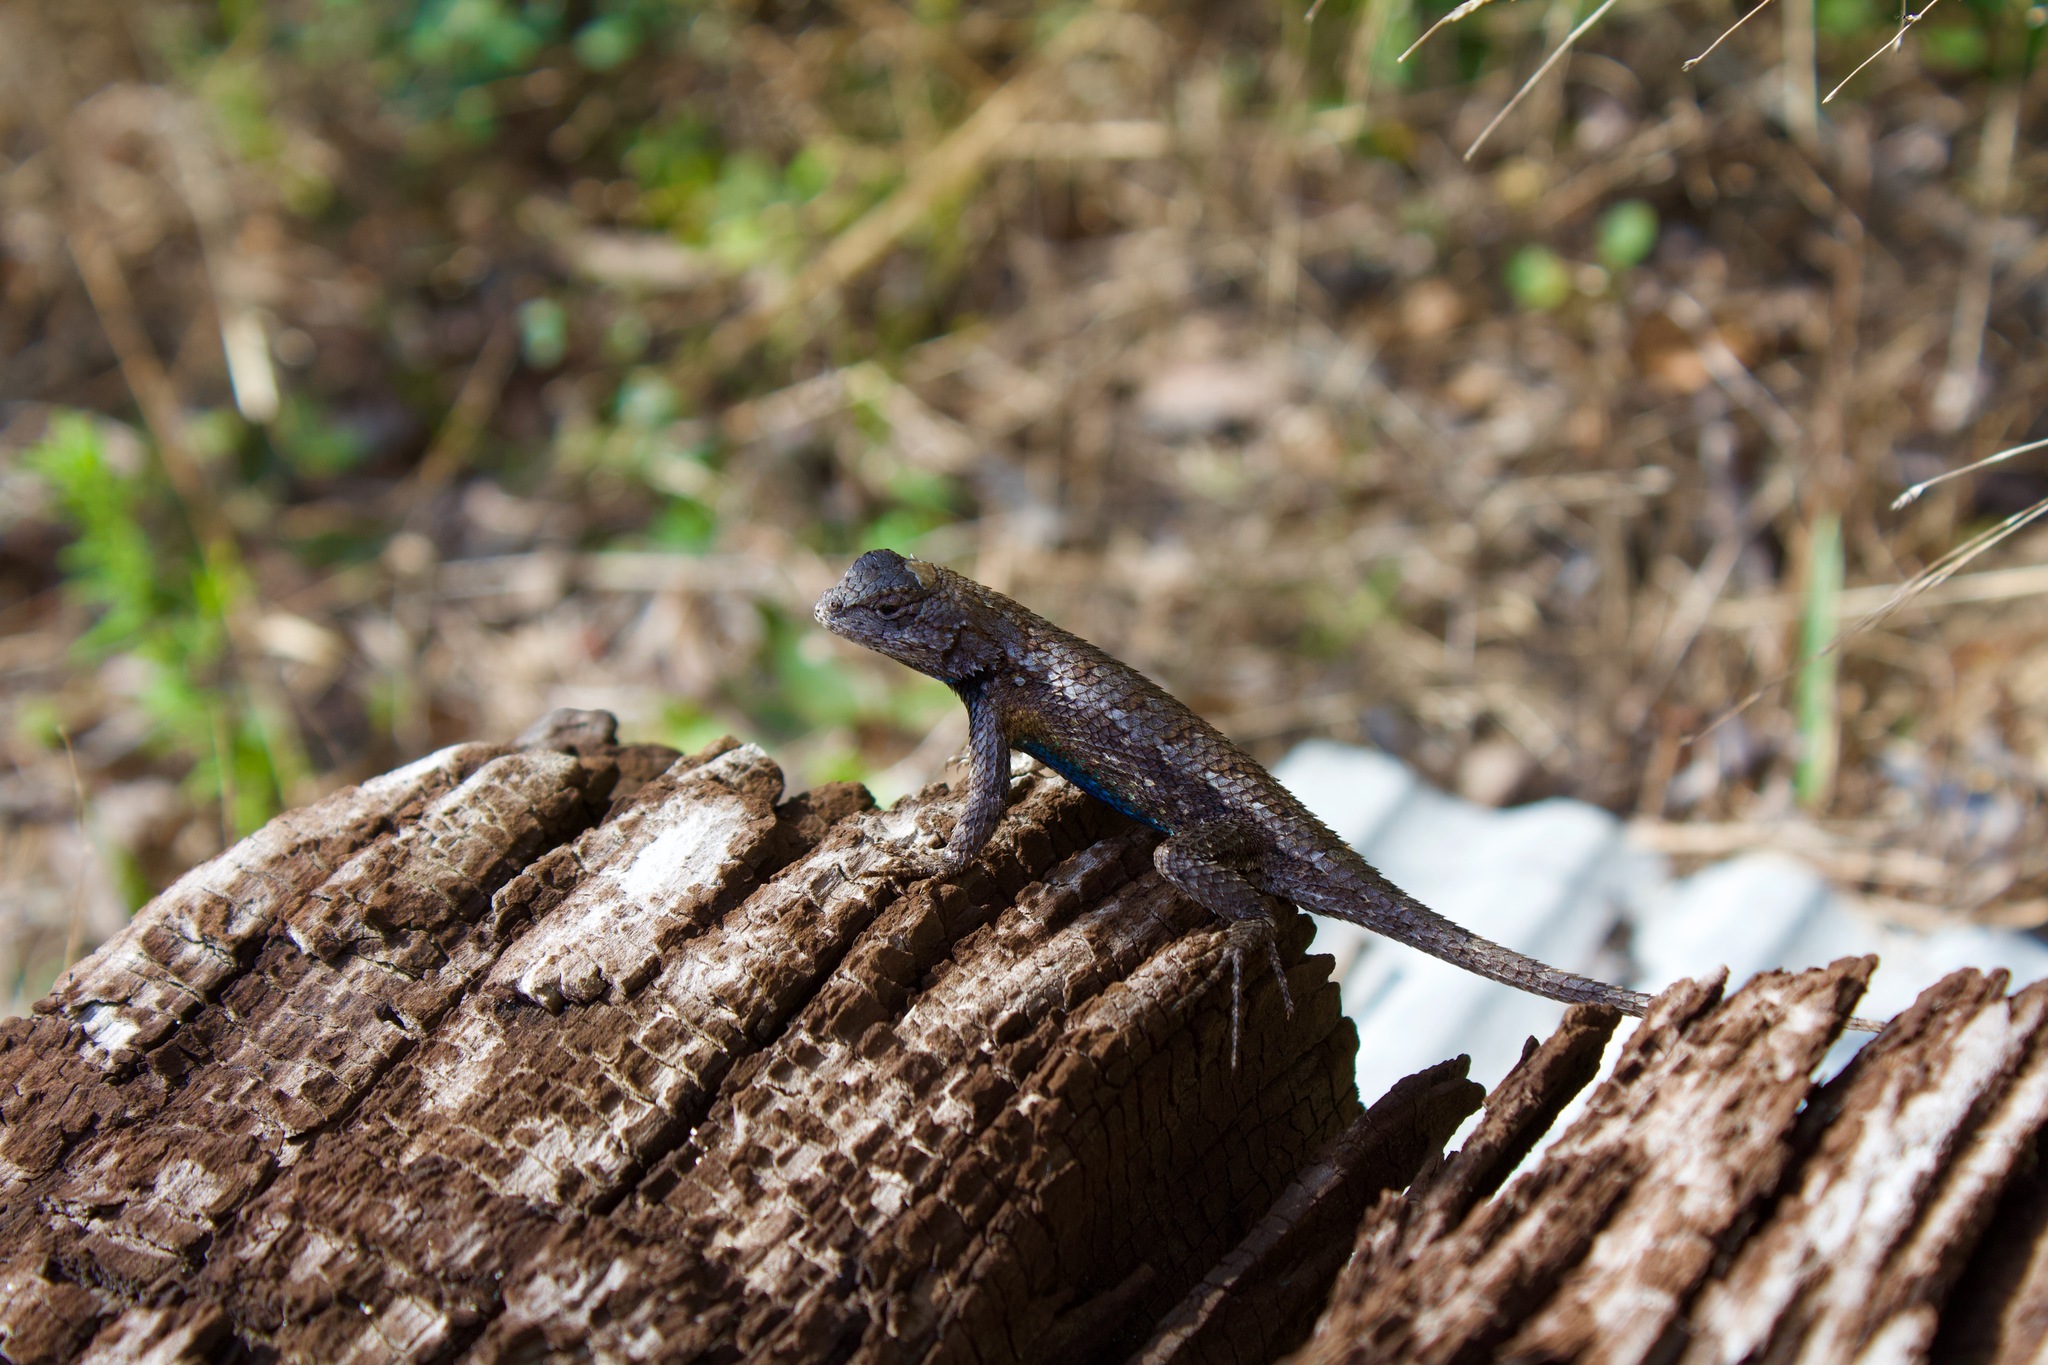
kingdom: Animalia
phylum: Chordata
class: Squamata
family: Phrynosomatidae
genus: Sceloporus
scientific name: Sceloporus undulatus
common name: Eastern fence lizard
